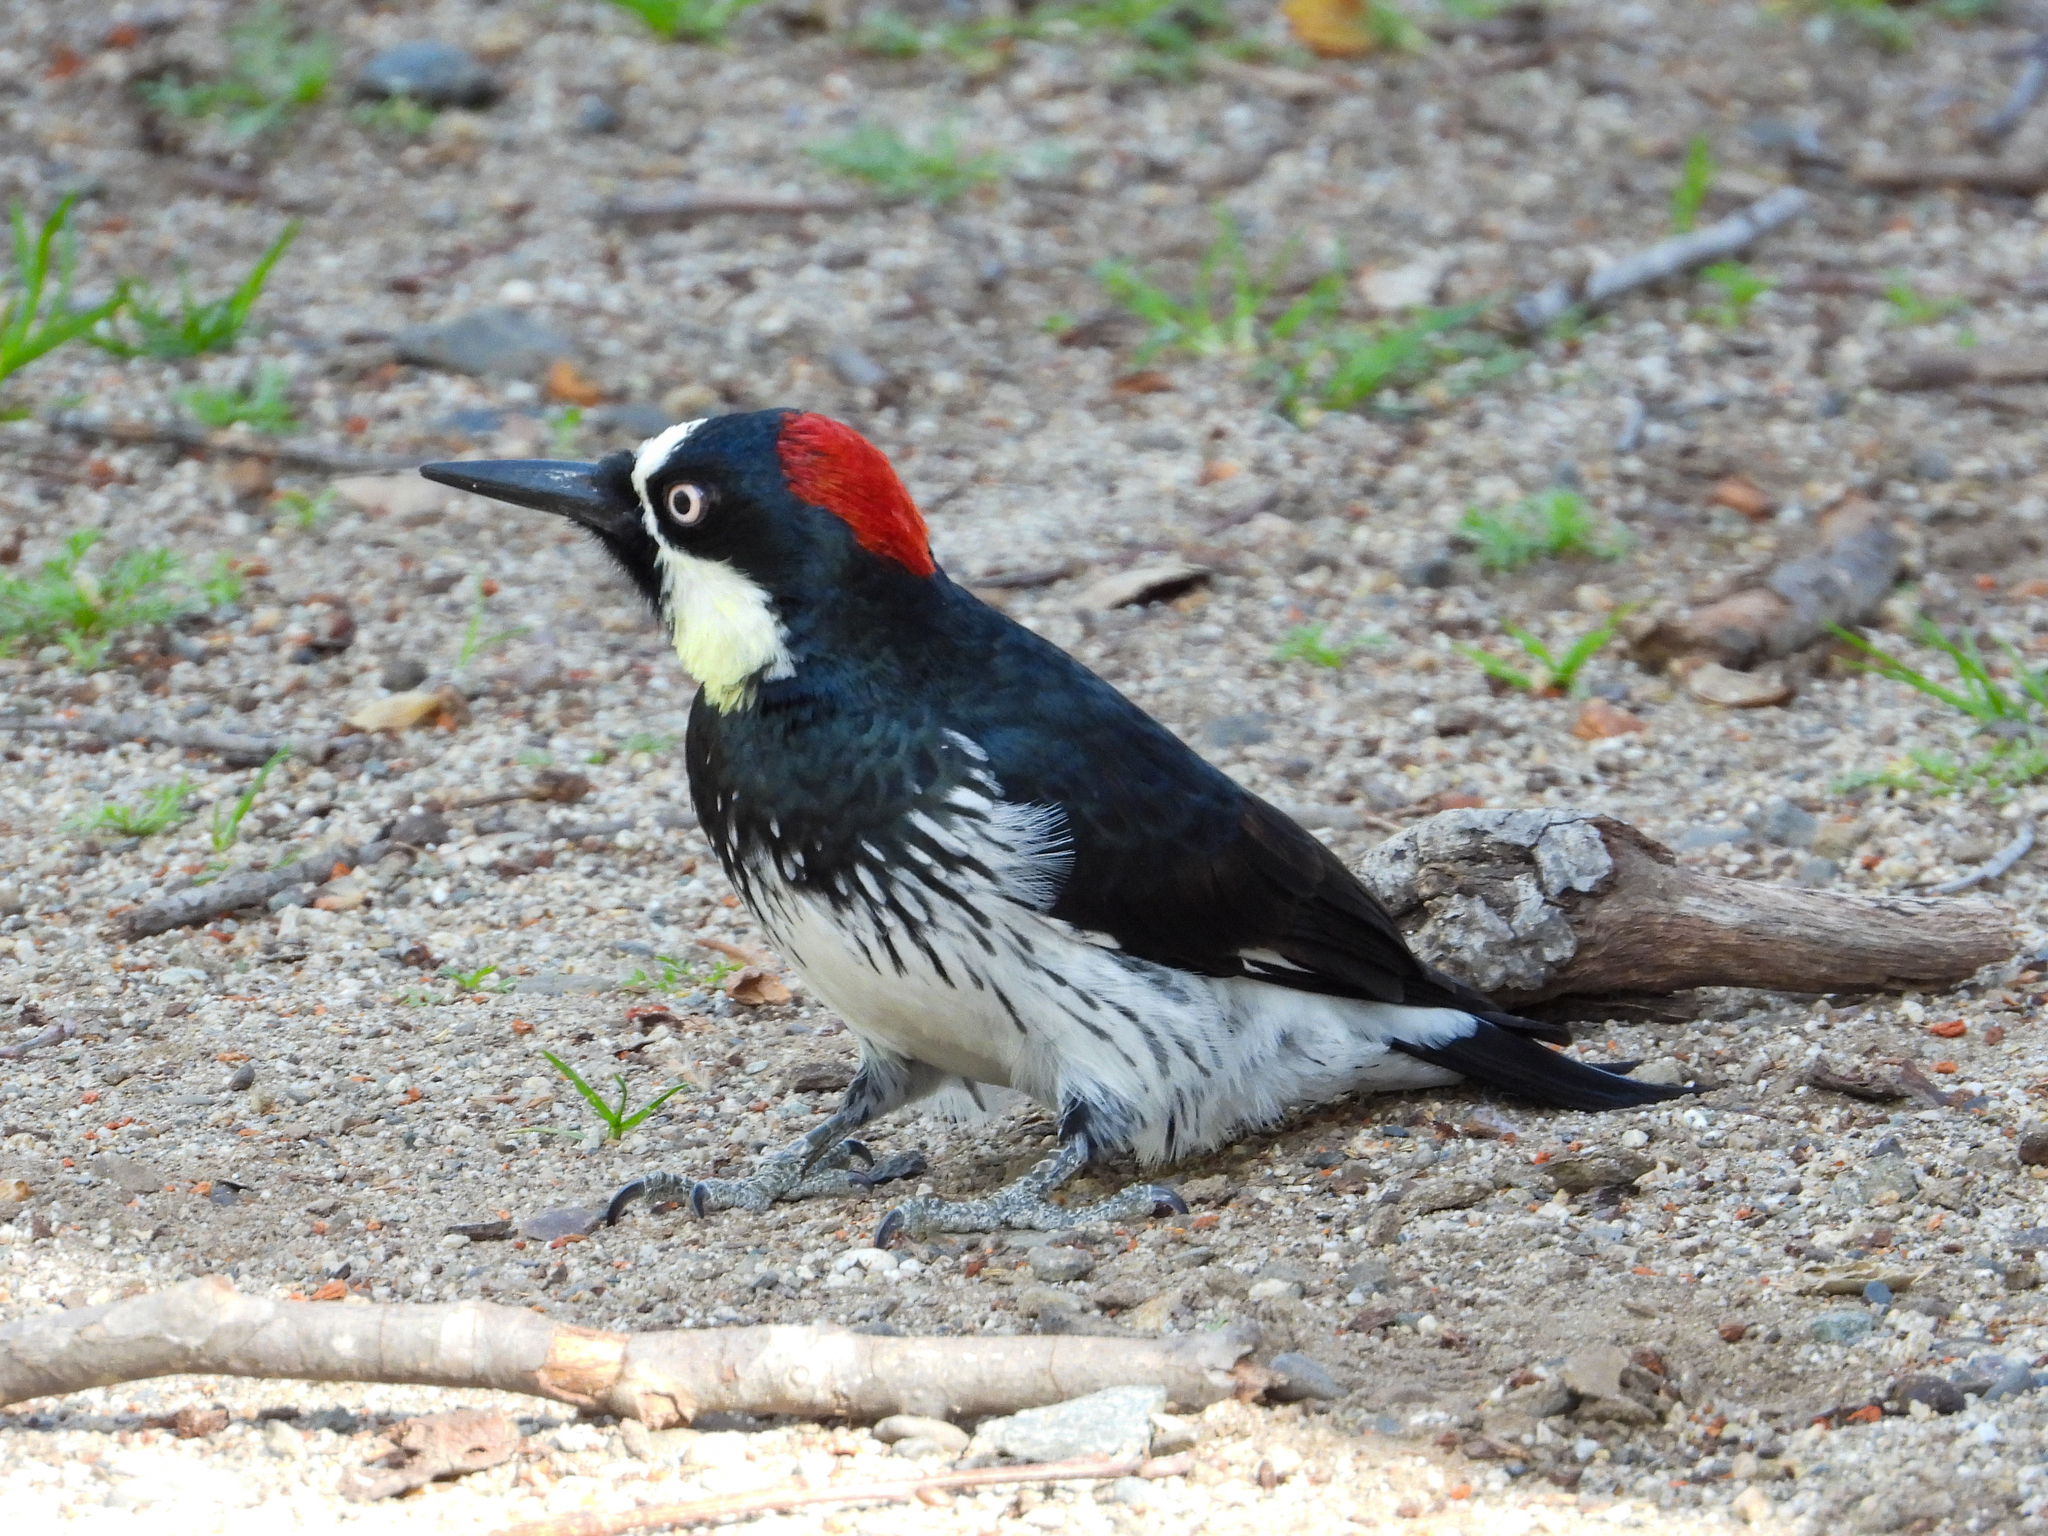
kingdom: Animalia
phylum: Chordata
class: Aves
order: Piciformes
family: Picidae
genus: Melanerpes
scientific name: Melanerpes formicivorus
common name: Acorn woodpecker
